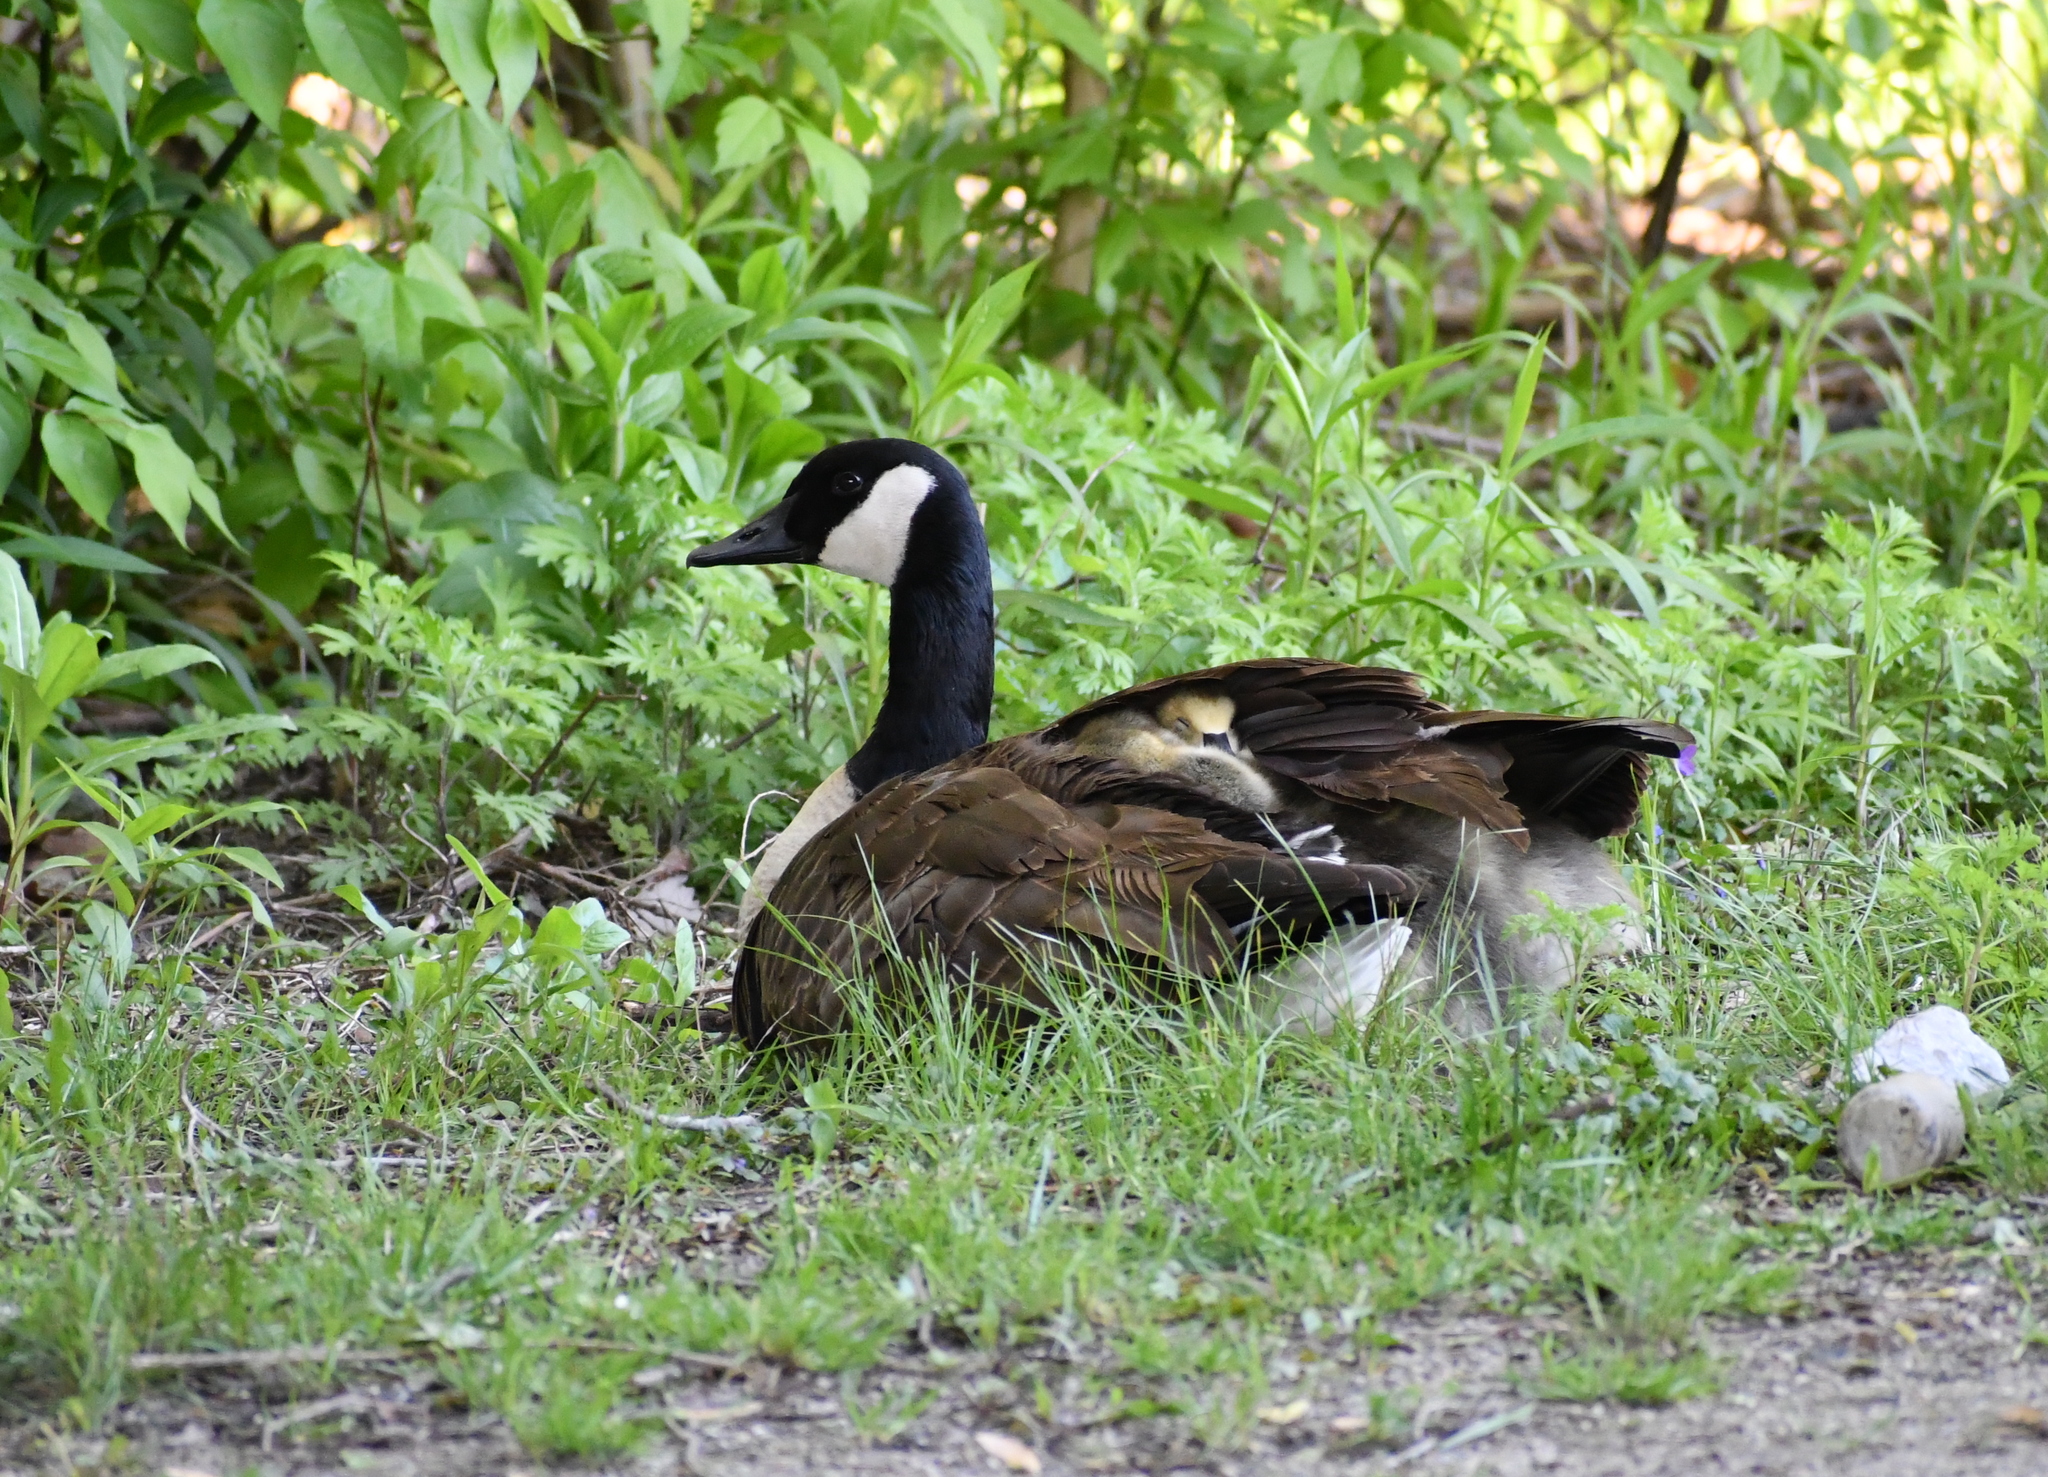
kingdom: Animalia
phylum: Chordata
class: Aves
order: Anseriformes
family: Anatidae
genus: Branta
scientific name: Branta canadensis
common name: Canada goose
